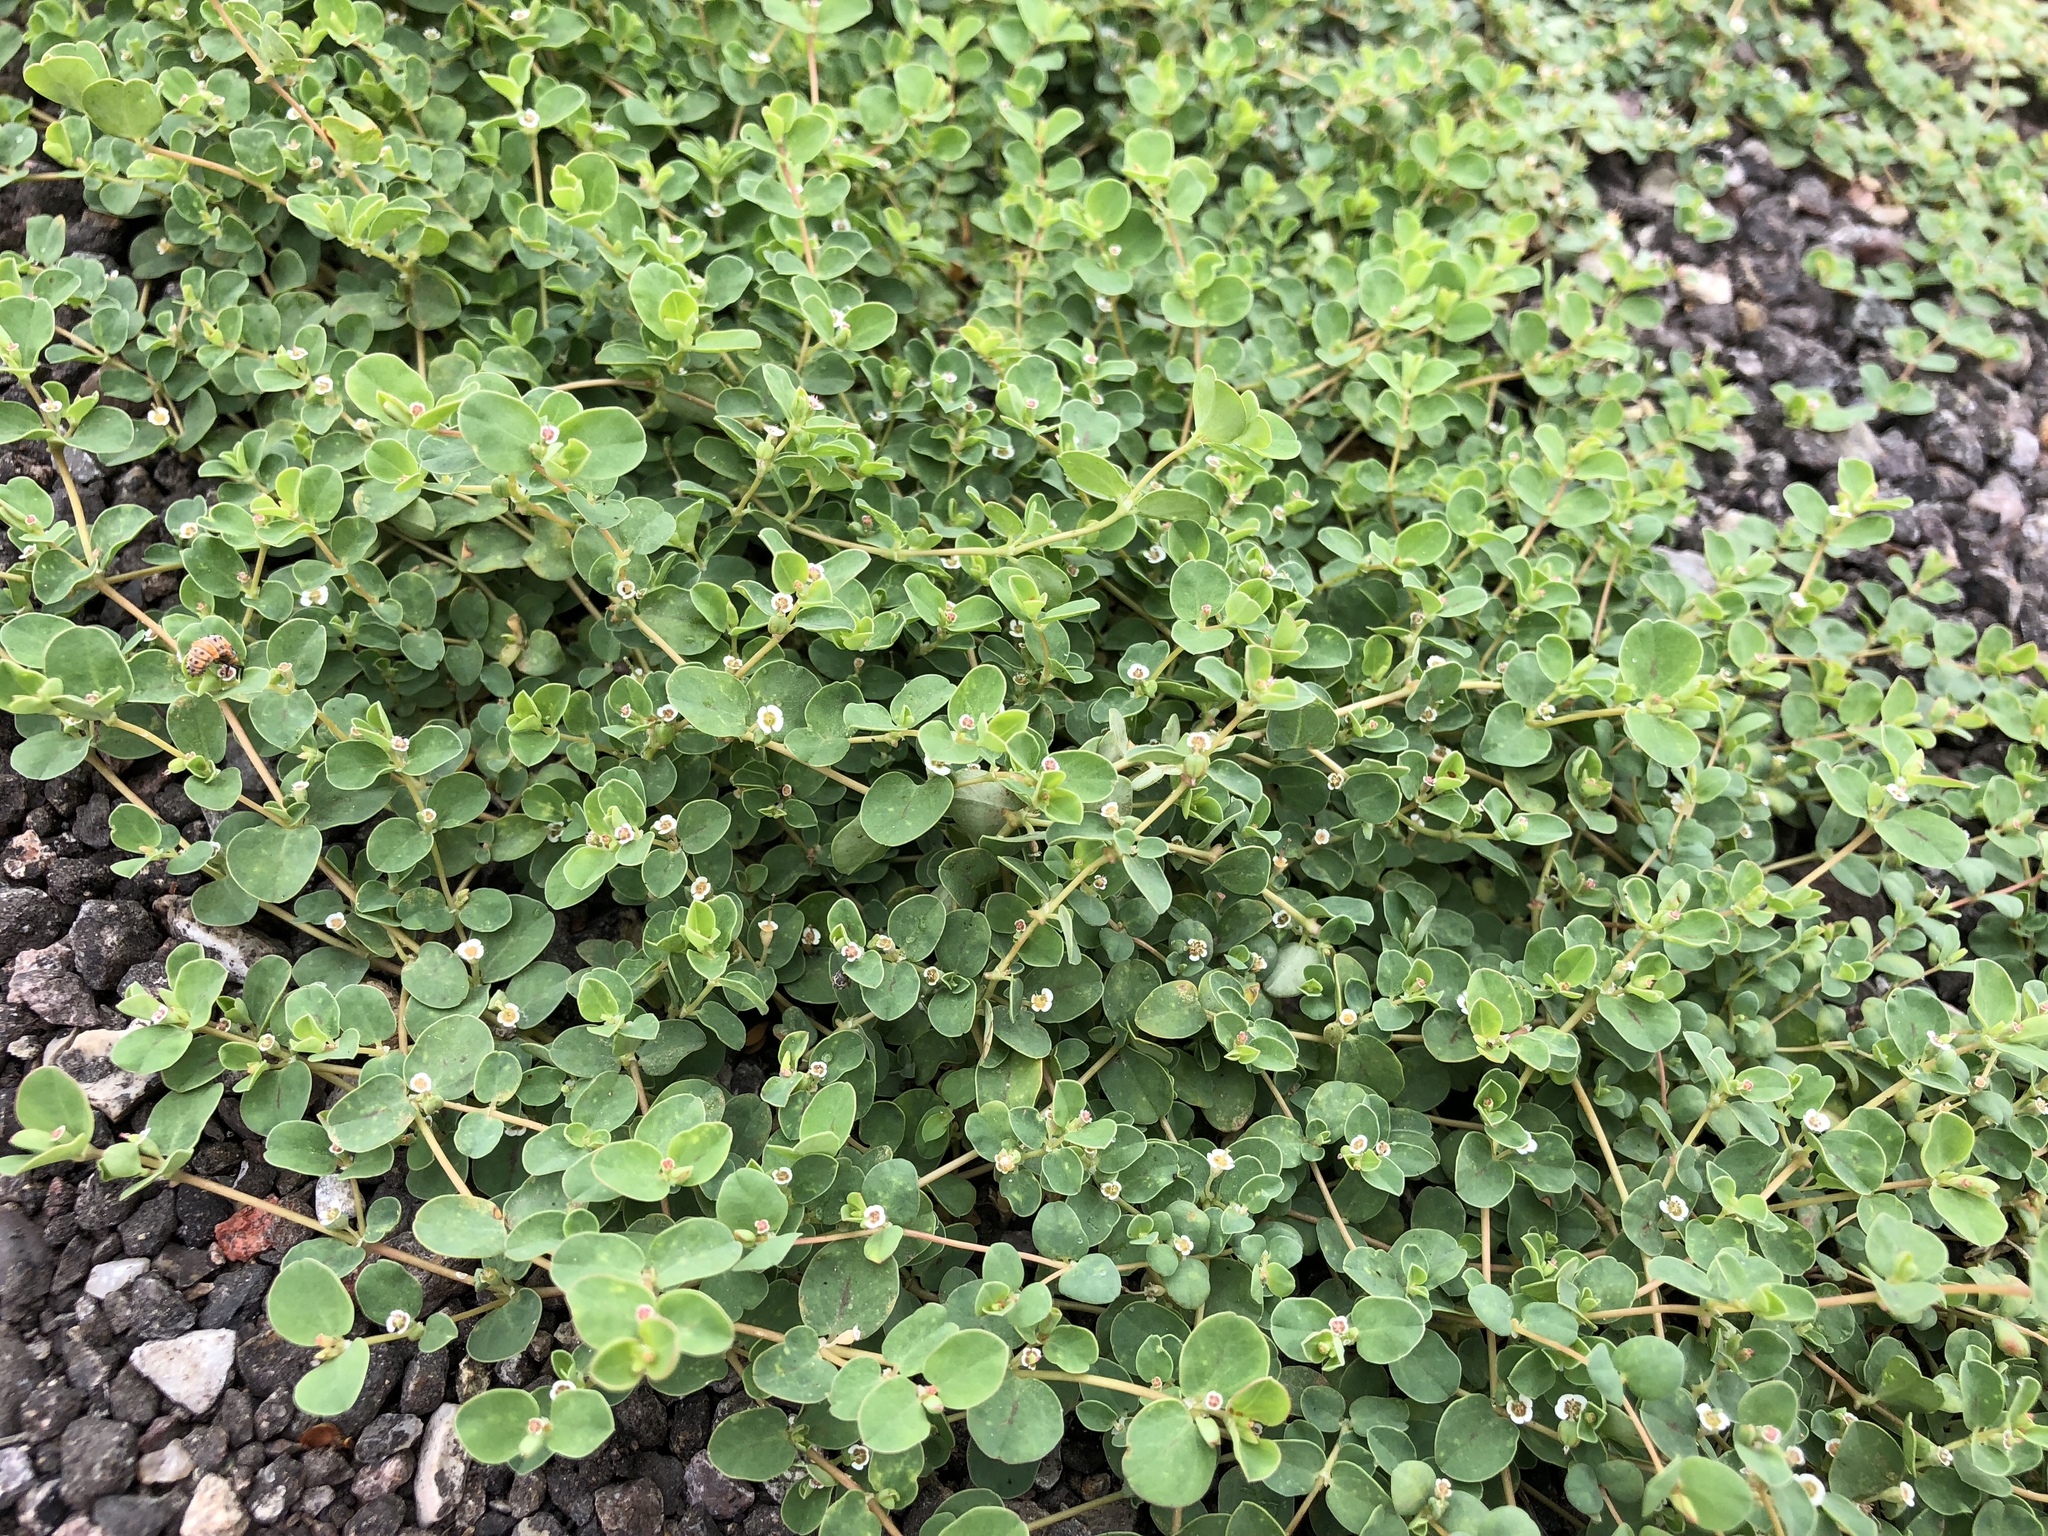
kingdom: Plantae
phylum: Tracheophyta
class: Magnoliopsida
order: Malpighiales
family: Euphorbiaceae
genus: Euphorbia
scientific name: Euphorbia albomarginata
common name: Whitemargin sandmat
